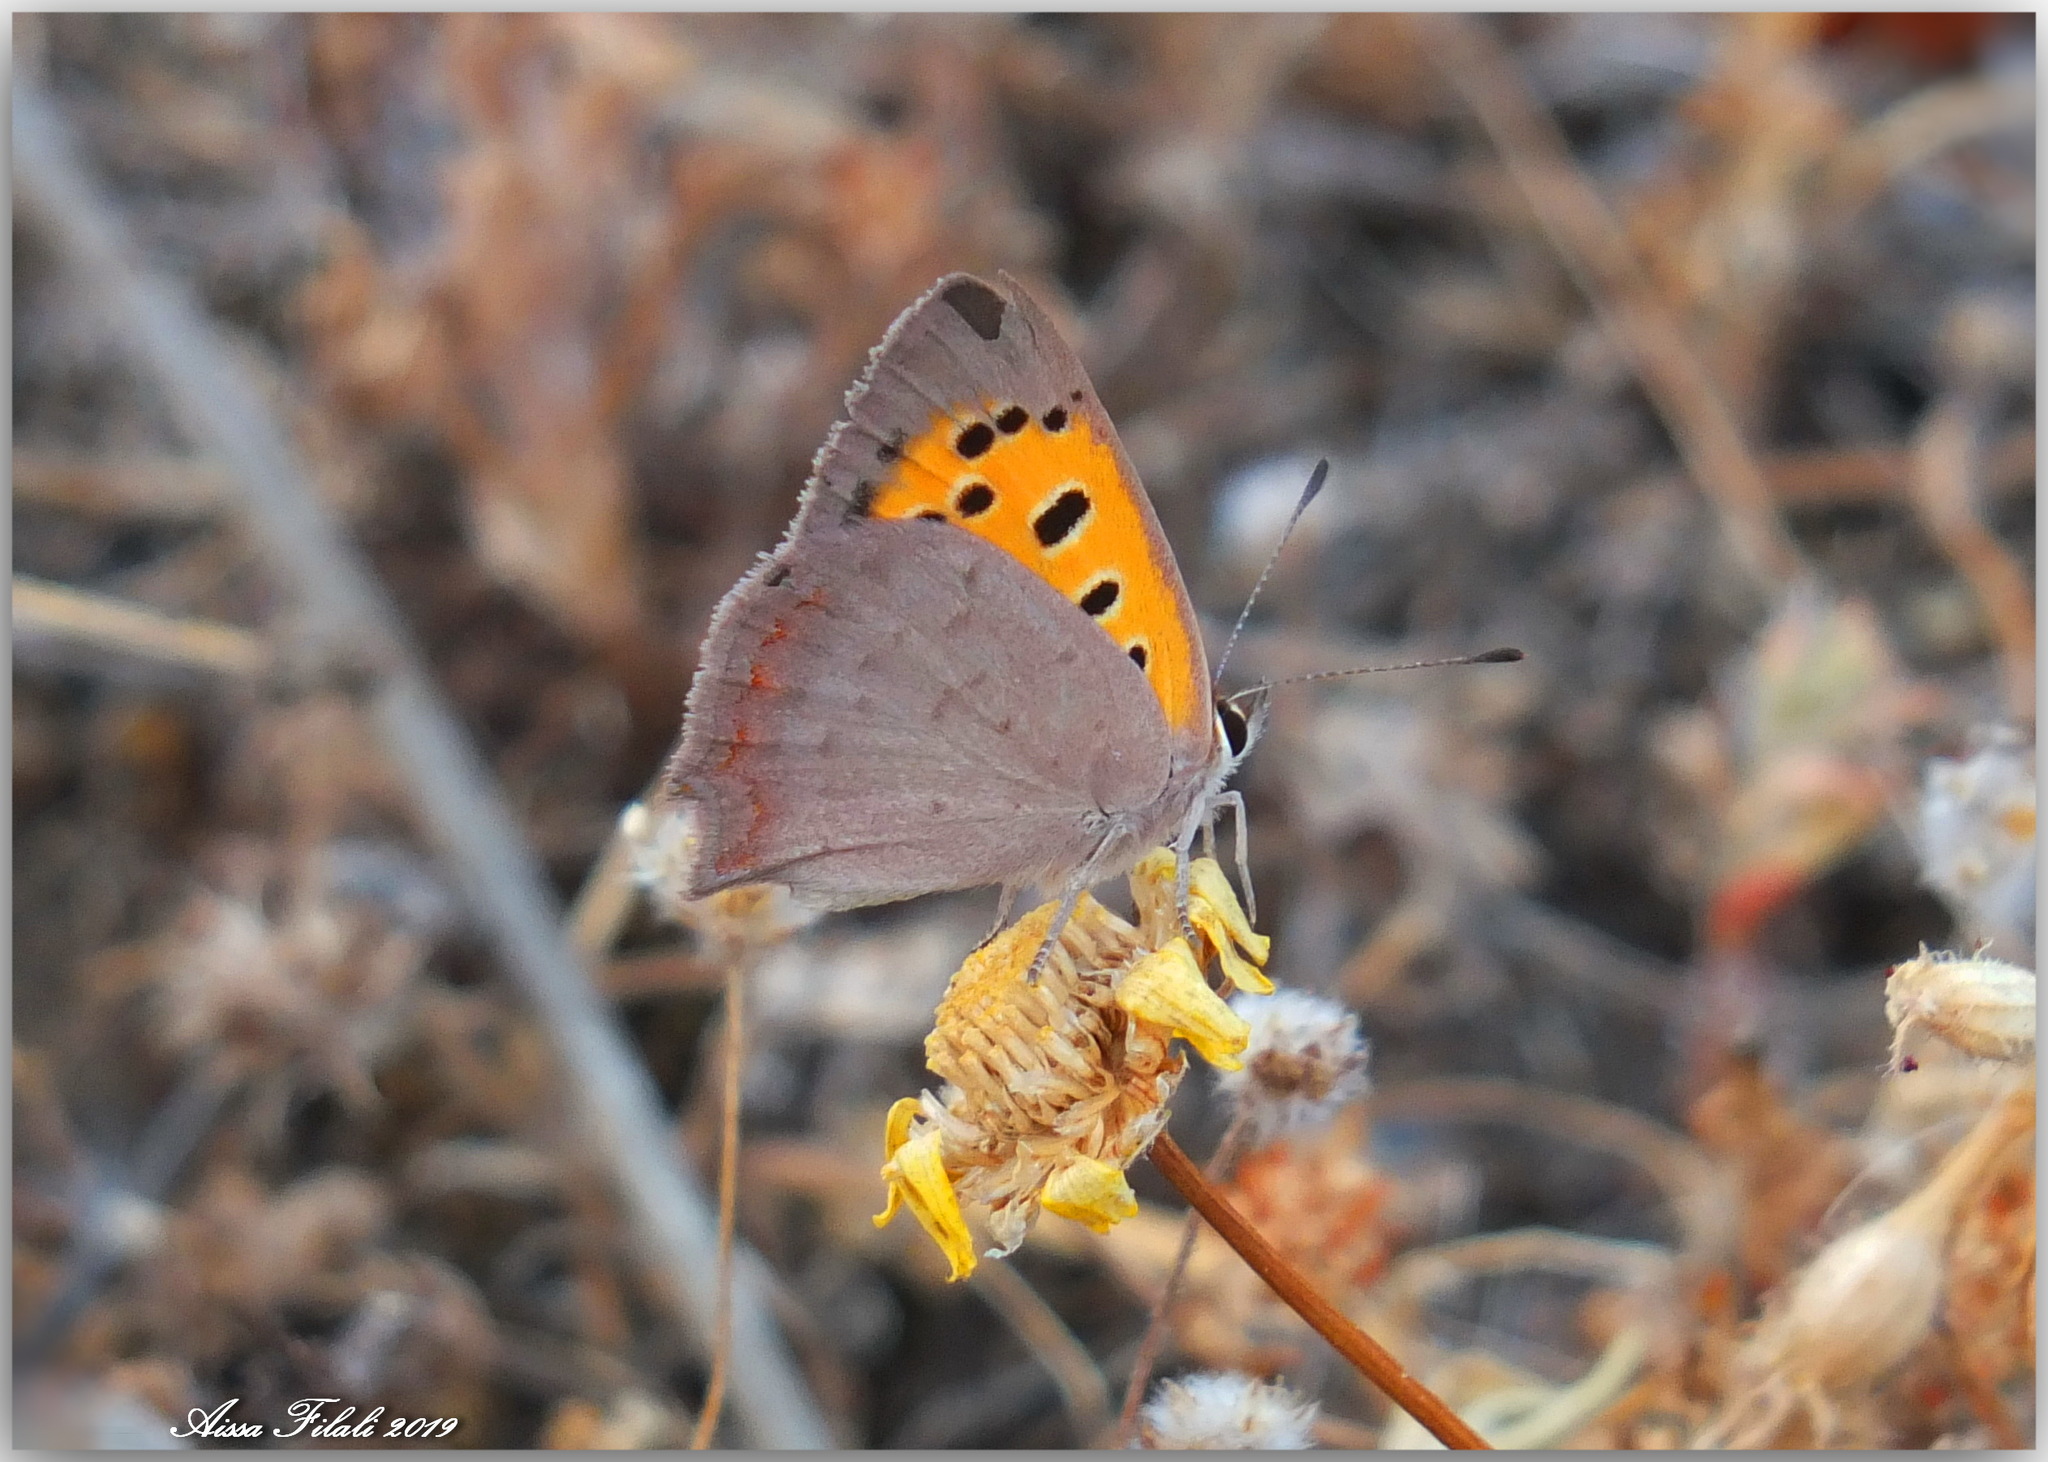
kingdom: Animalia
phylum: Arthropoda
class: Insecta
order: Lepidoptera
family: Lycaenidae
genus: Lycaena
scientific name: Lycaena phlaeas
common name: Small copper
